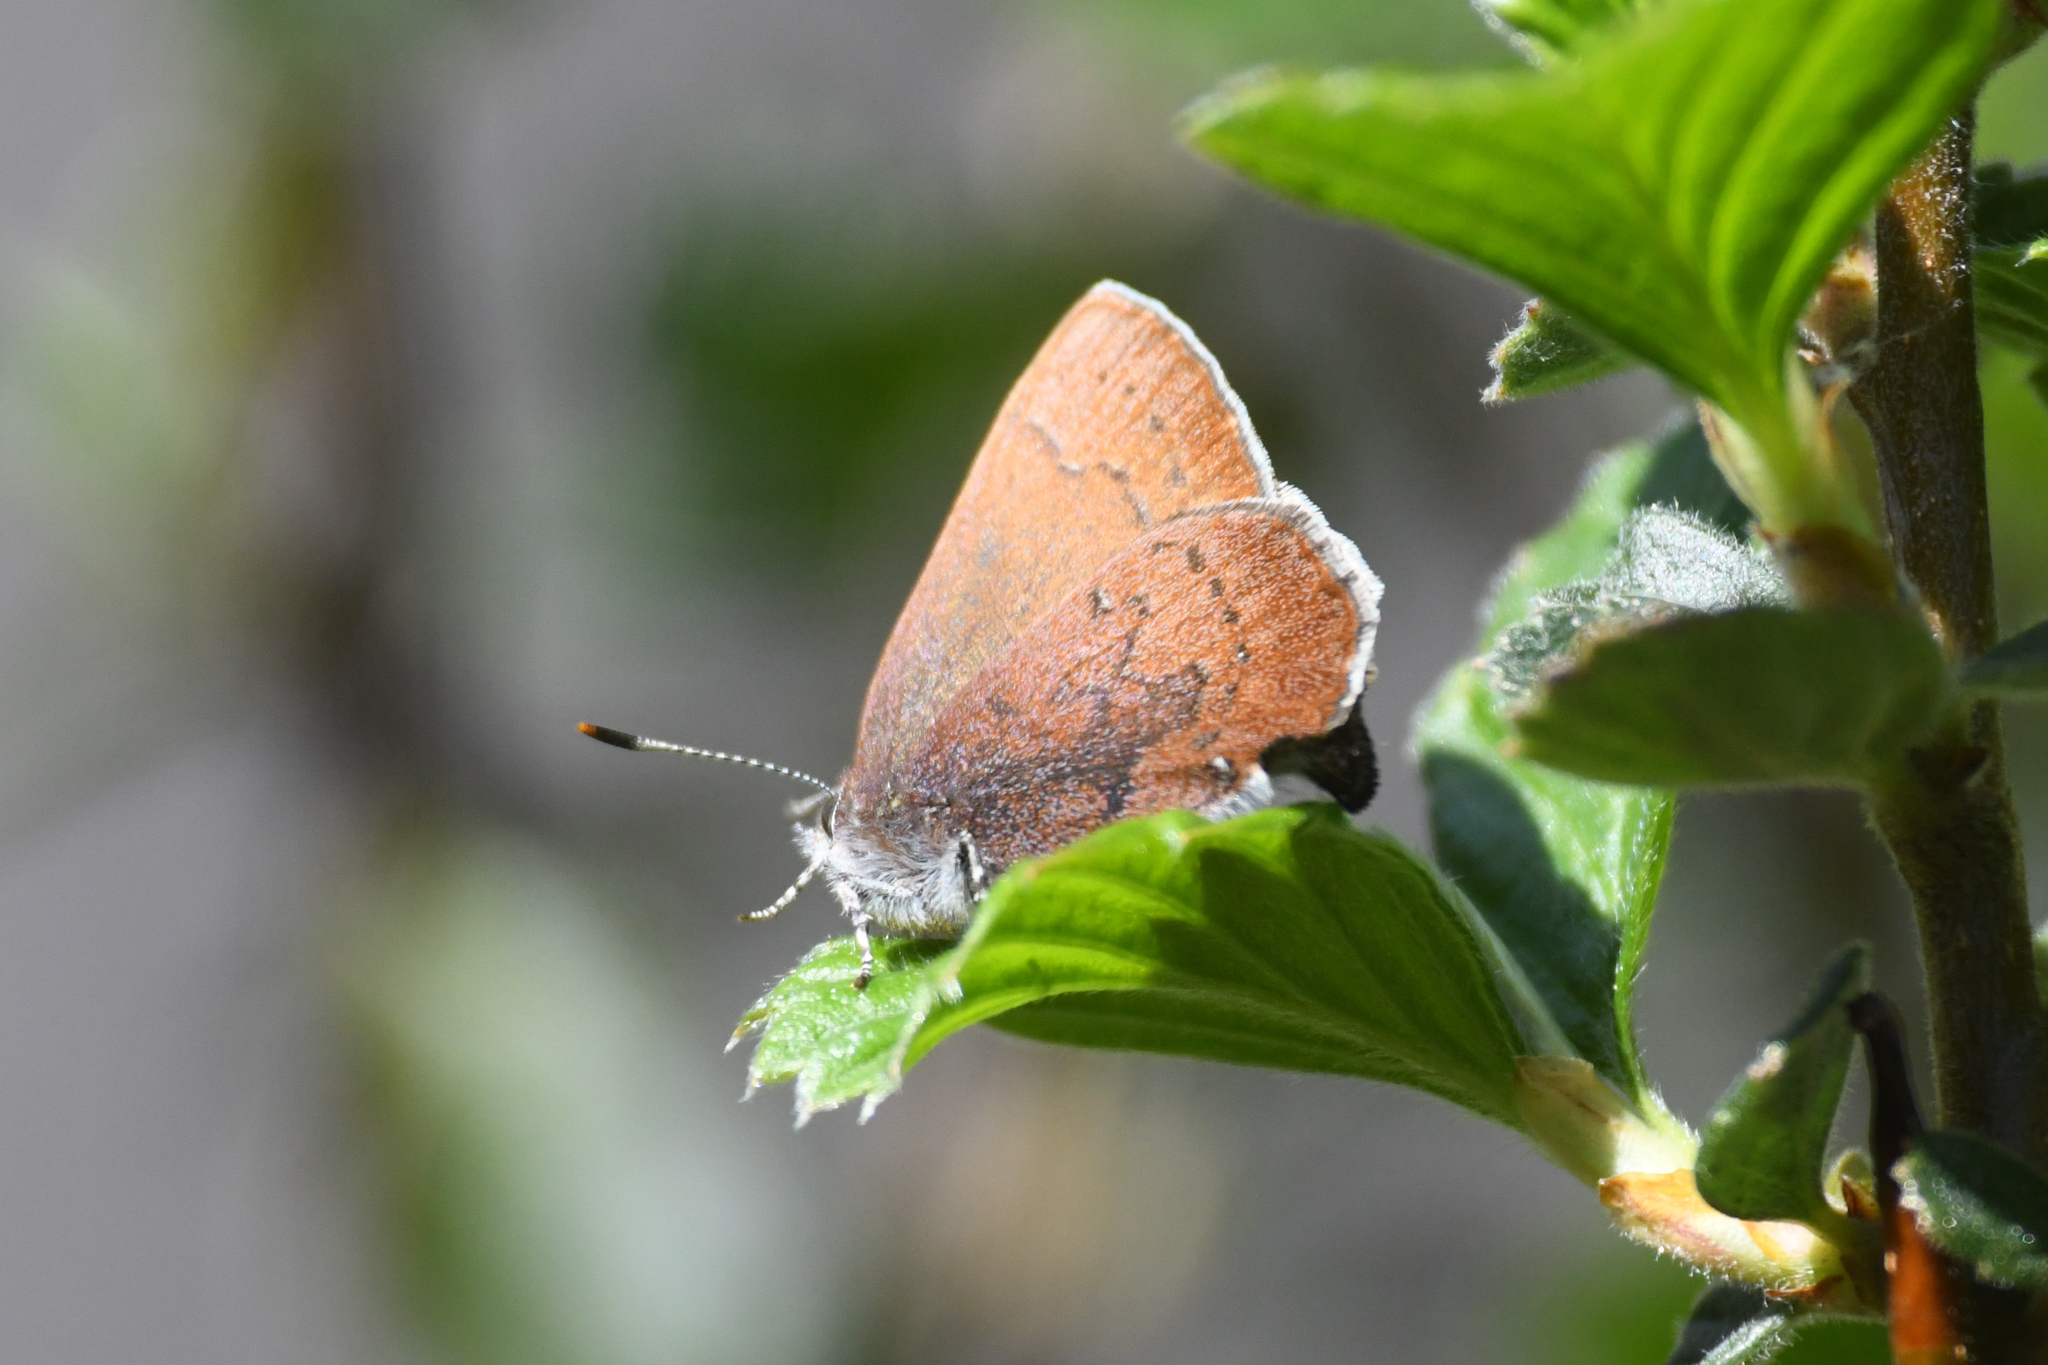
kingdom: Animalia
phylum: Arthropoda
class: Insecta
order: Lepidoptera
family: Lycaenidae
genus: Incisalia
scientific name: Incisalia irioides
